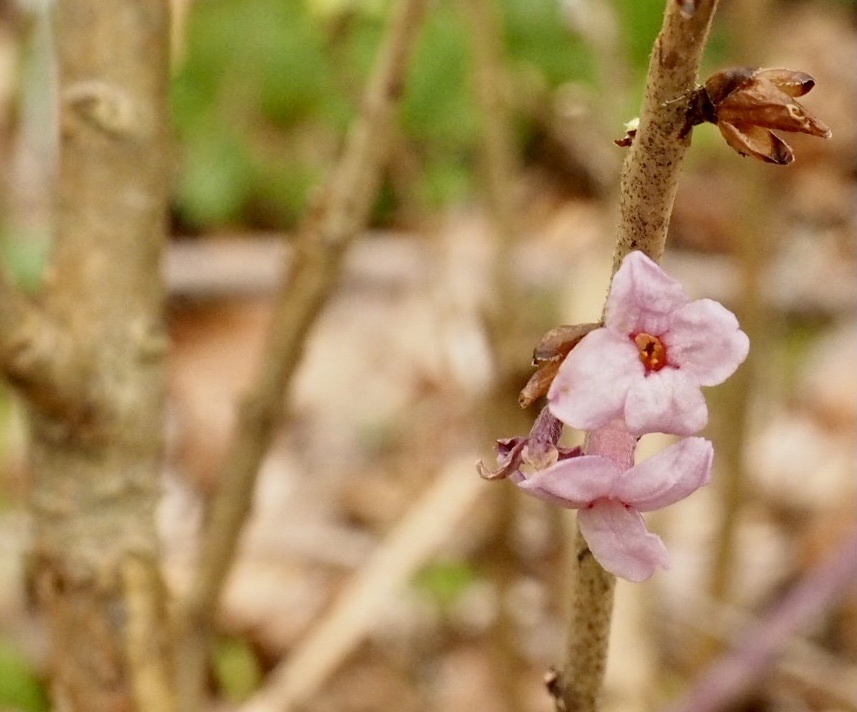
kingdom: Plantae
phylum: Tracheophyta
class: Magnoliopsida
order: Malvales
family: Thymelaeaceae
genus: Daphne
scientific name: Daphne mezereum
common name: Mezereon
